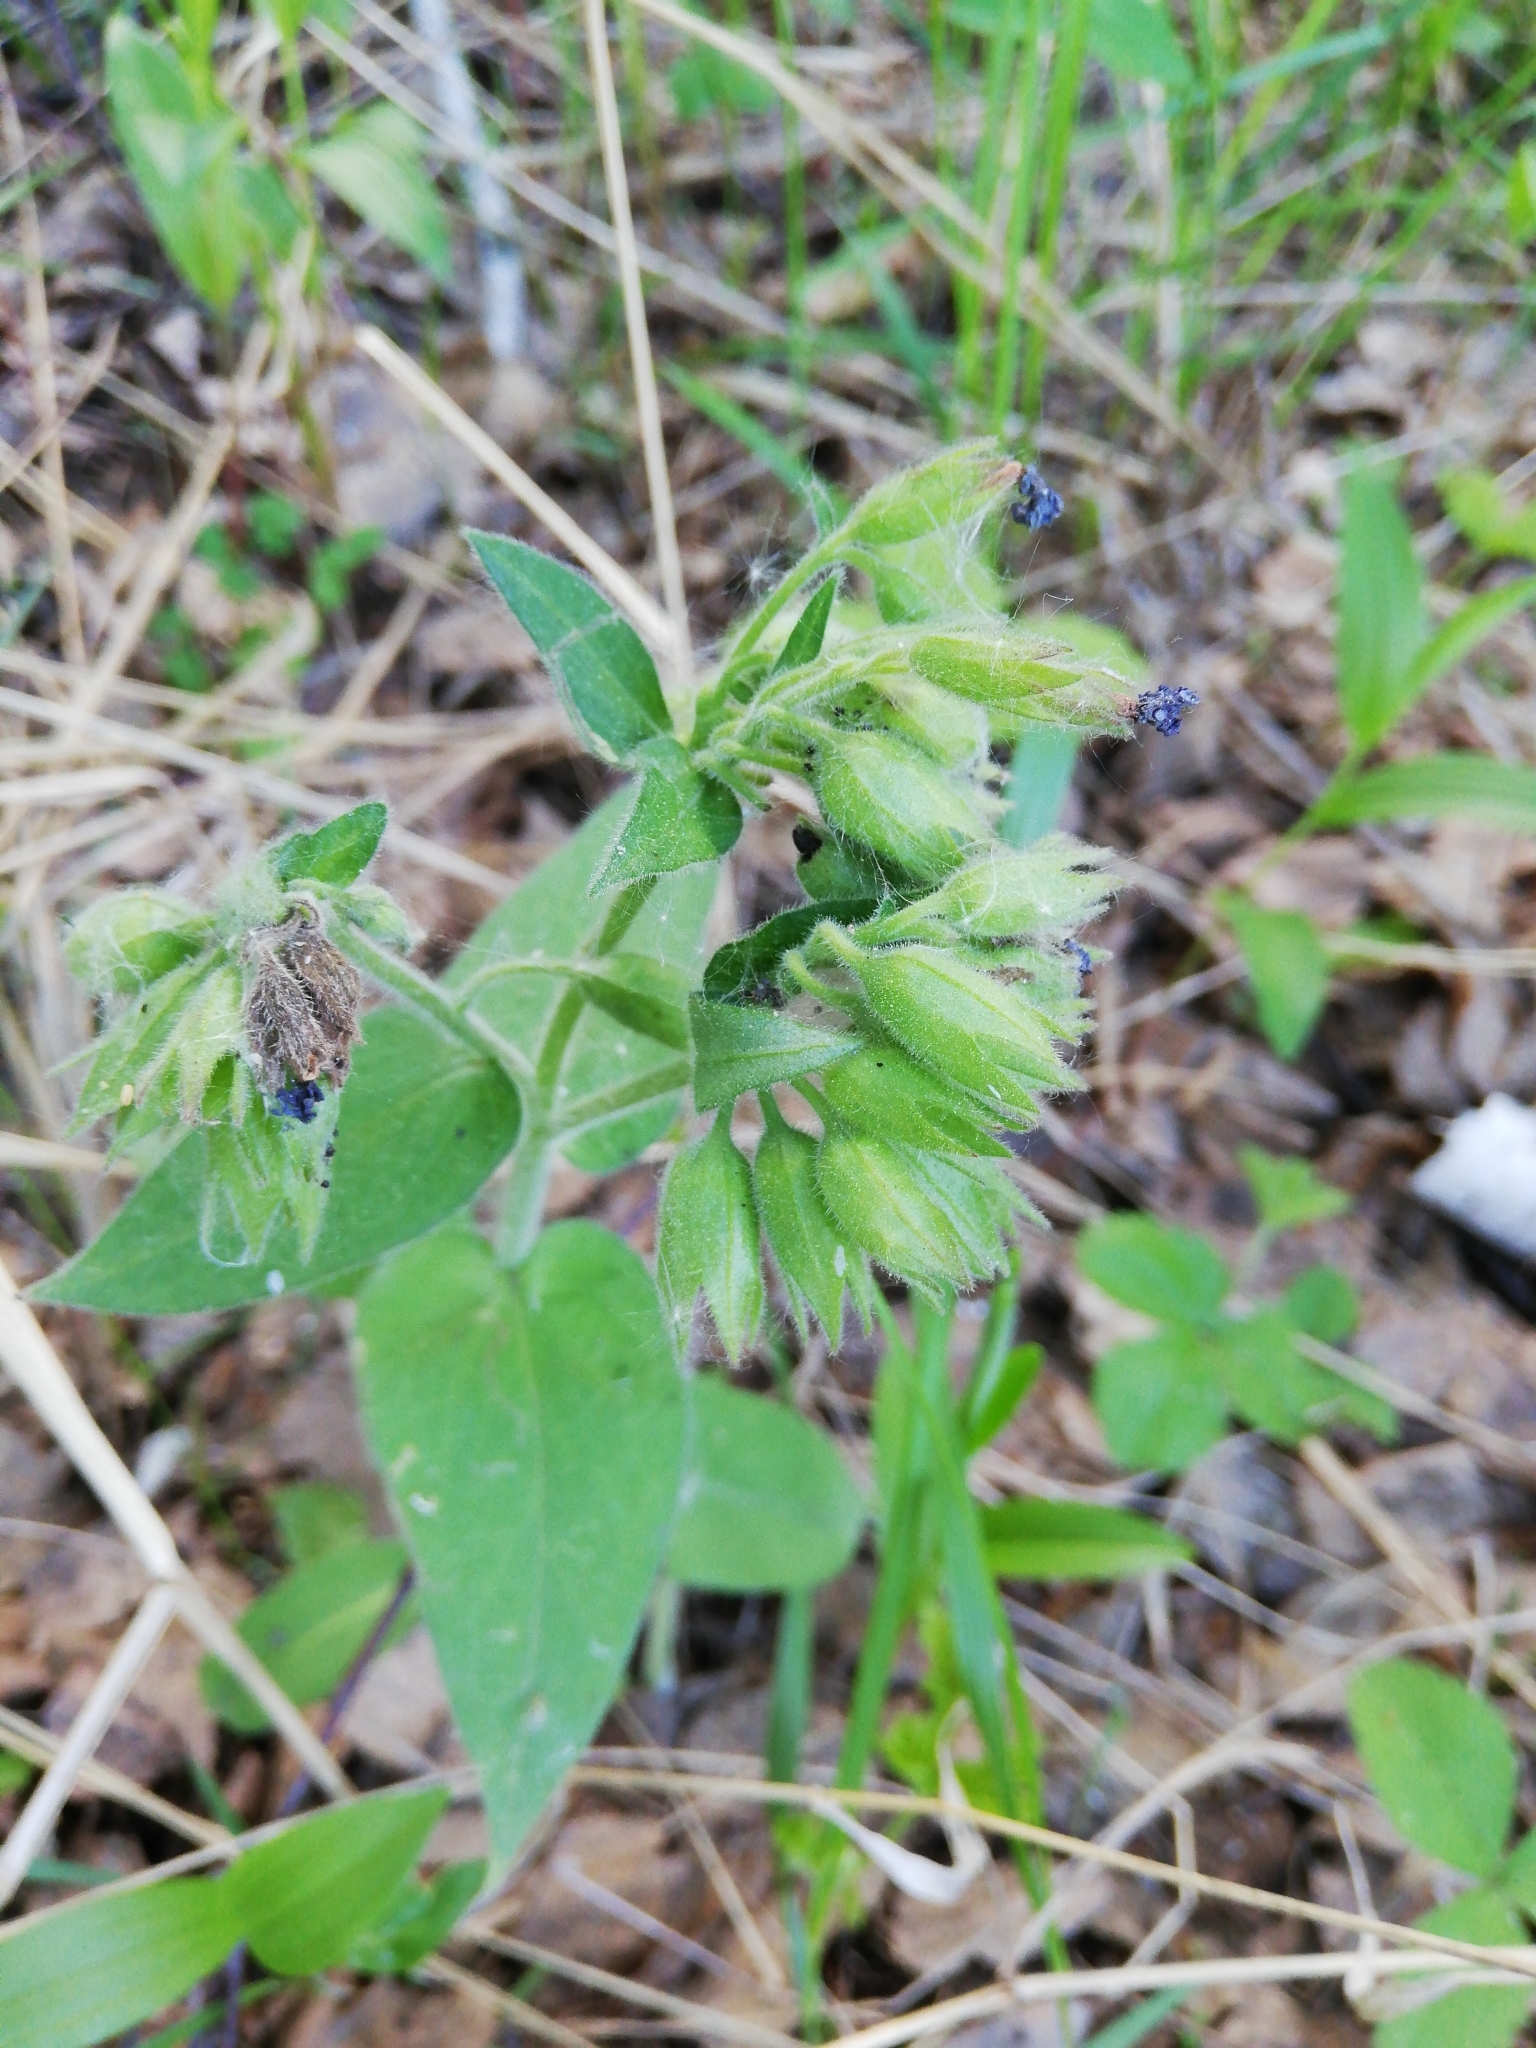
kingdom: Plantae
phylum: Tracheophyta
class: Magnoliopsida
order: Boraginales
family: Boraginaceae
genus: Pulmonaria
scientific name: Pulmonaria mollis
